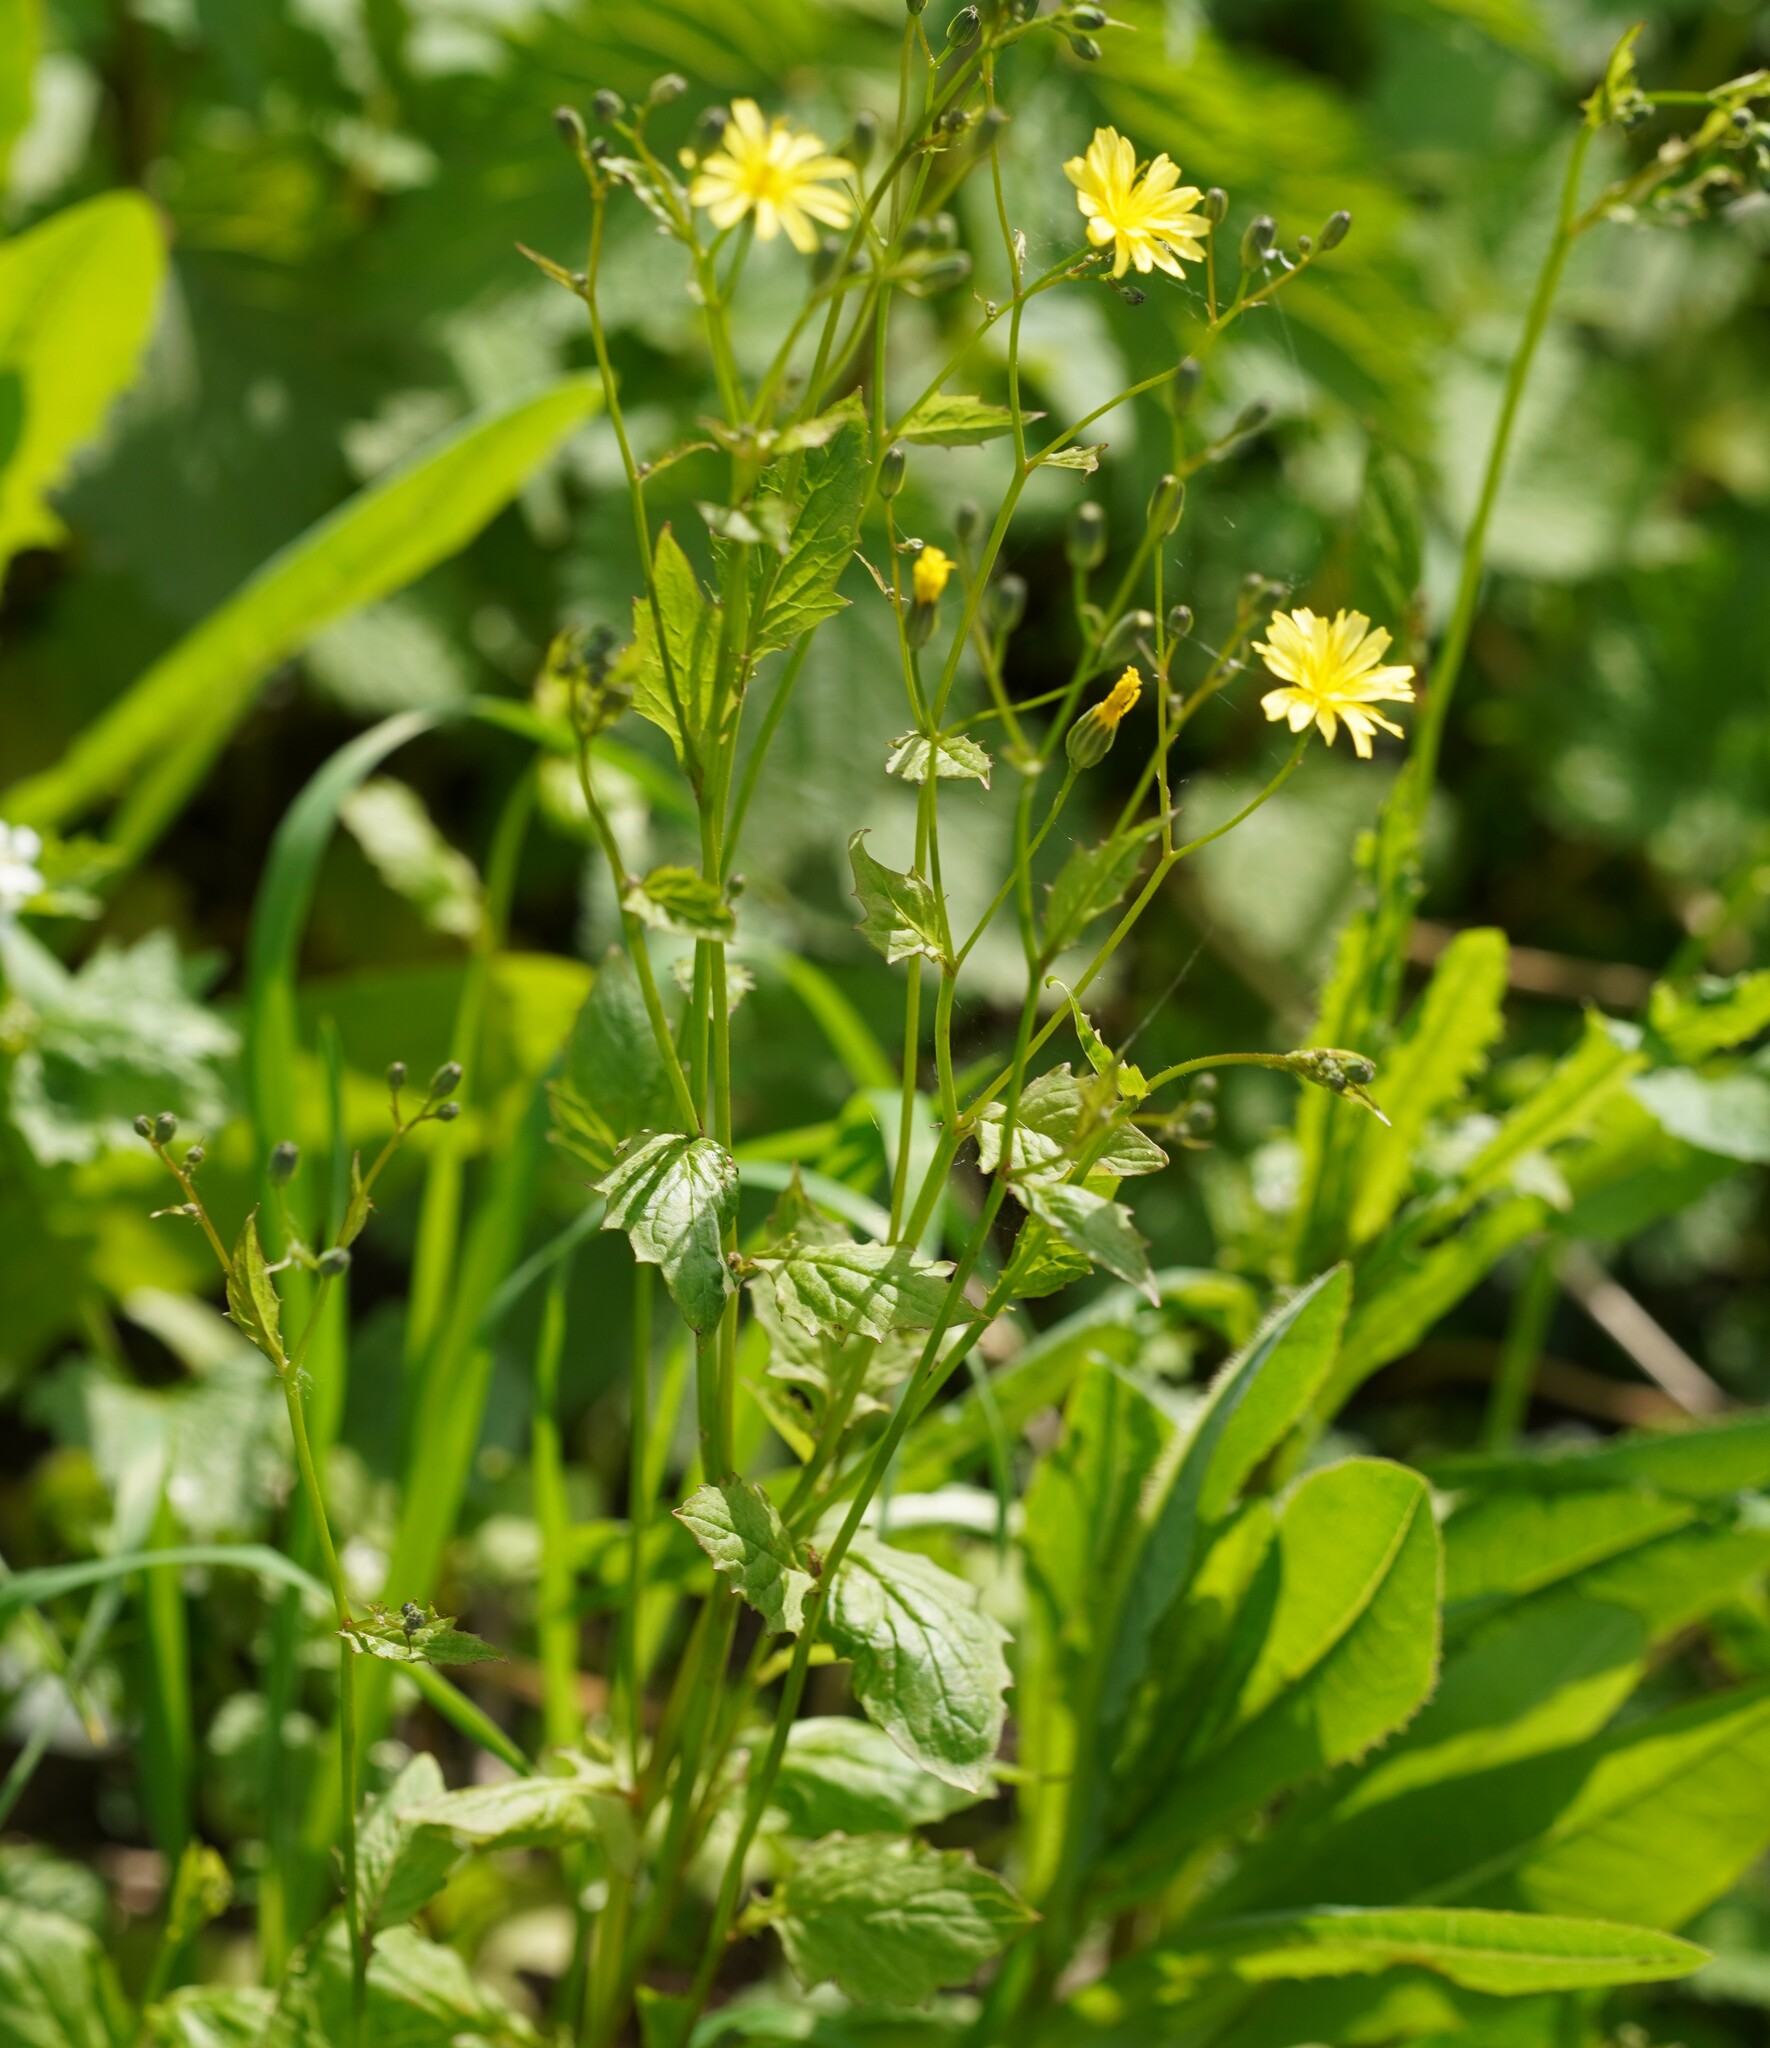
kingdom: Plantae
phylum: Tracheophyta
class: Magnoliopsida
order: Asterales
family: Asteraceae
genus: Lapsana
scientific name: Lapsana communis
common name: Nipplewort
